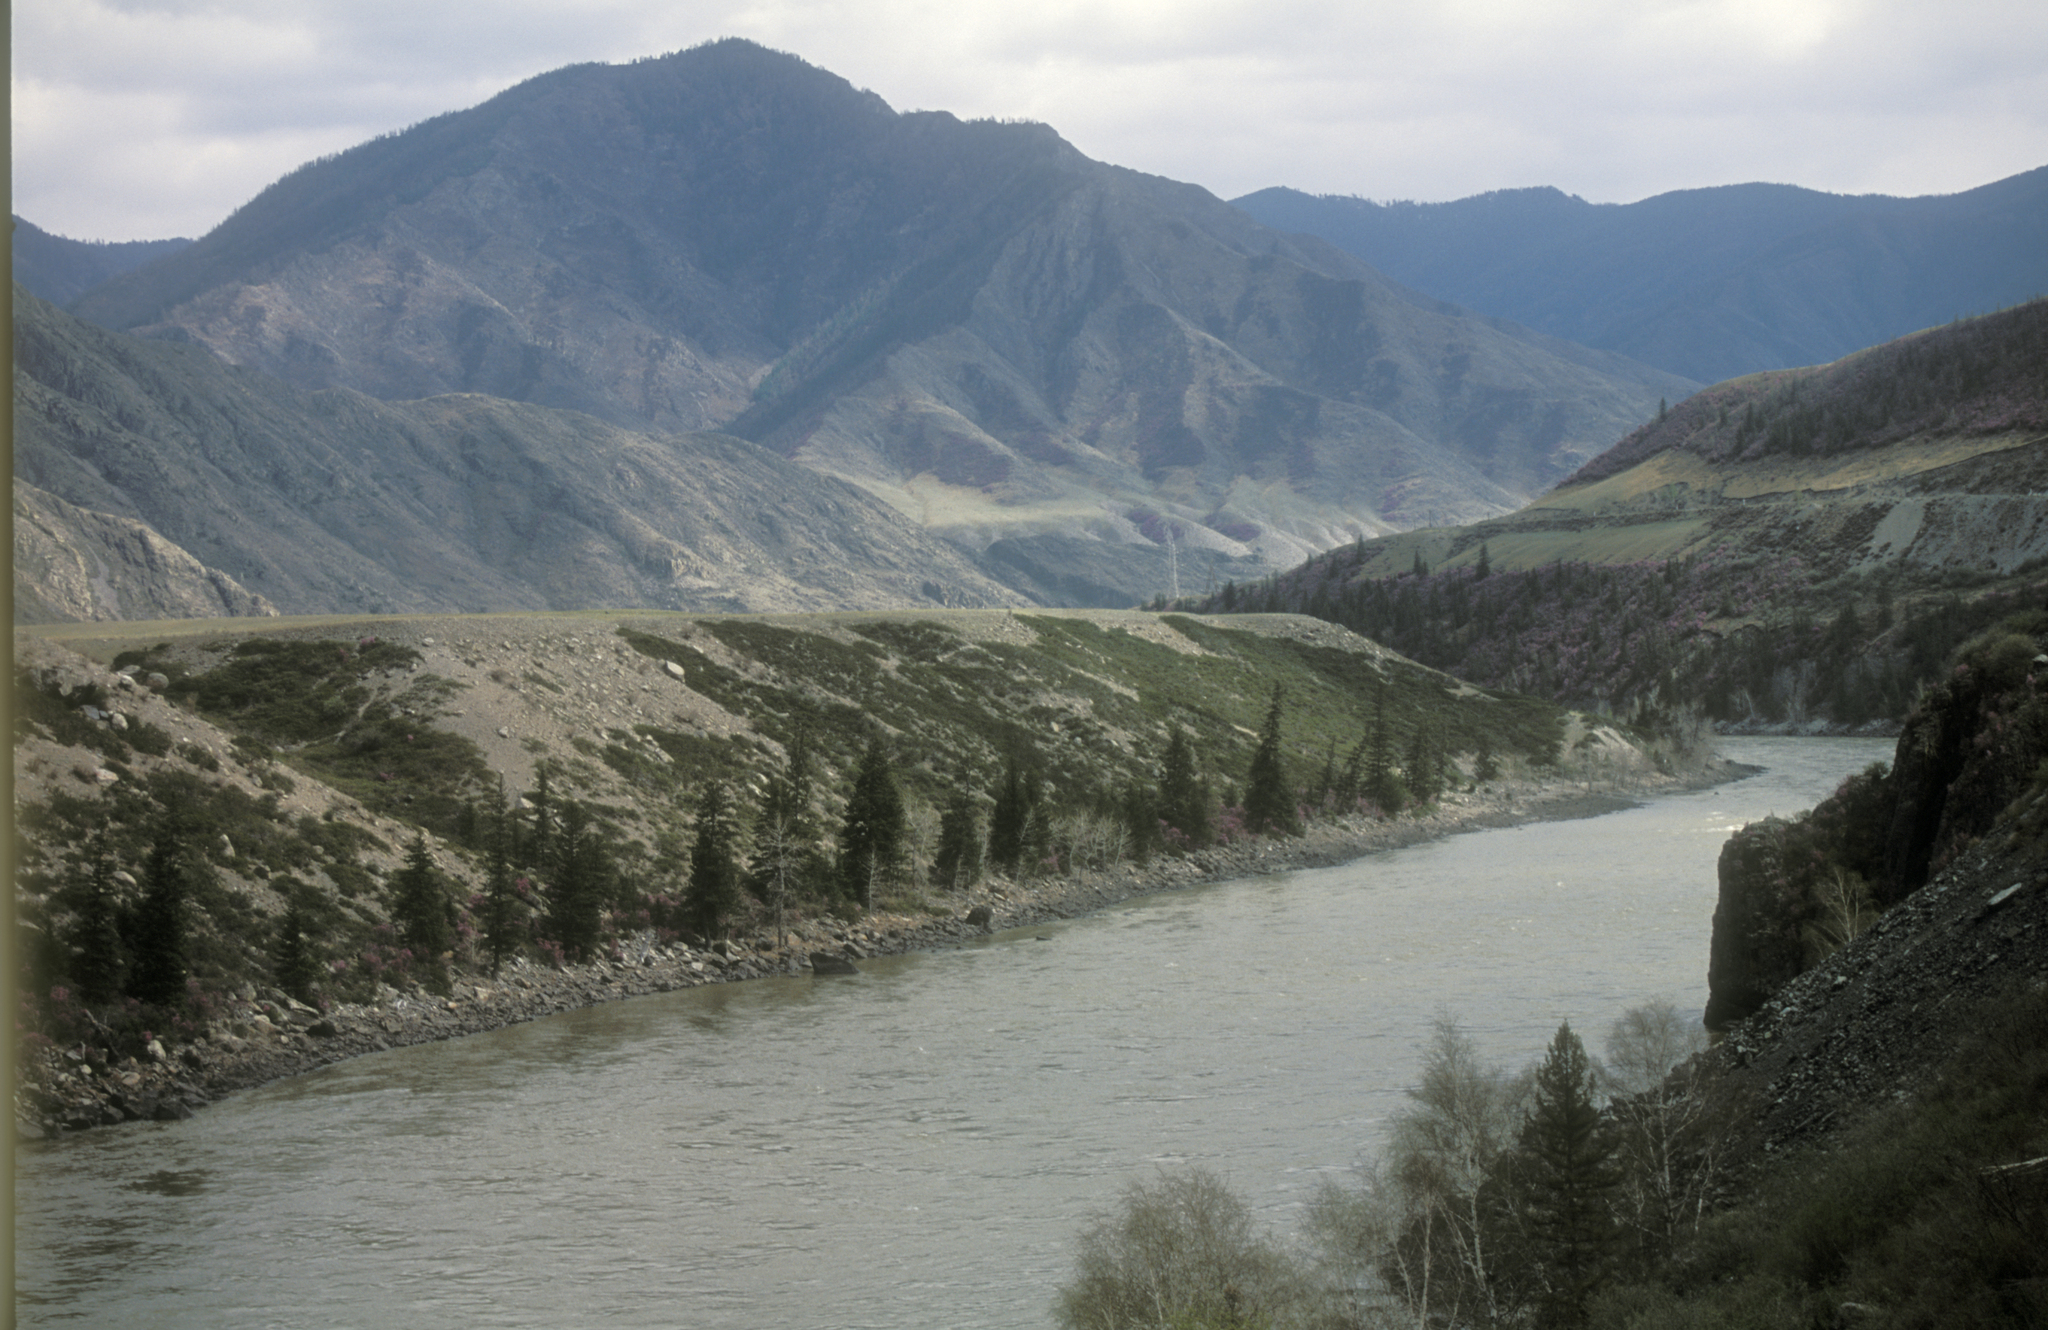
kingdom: Plantae
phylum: Tracheophyta
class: Pinopsida
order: Pinales
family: Pinaceae
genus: Picea
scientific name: Picea obovata
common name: Siberian spruce
